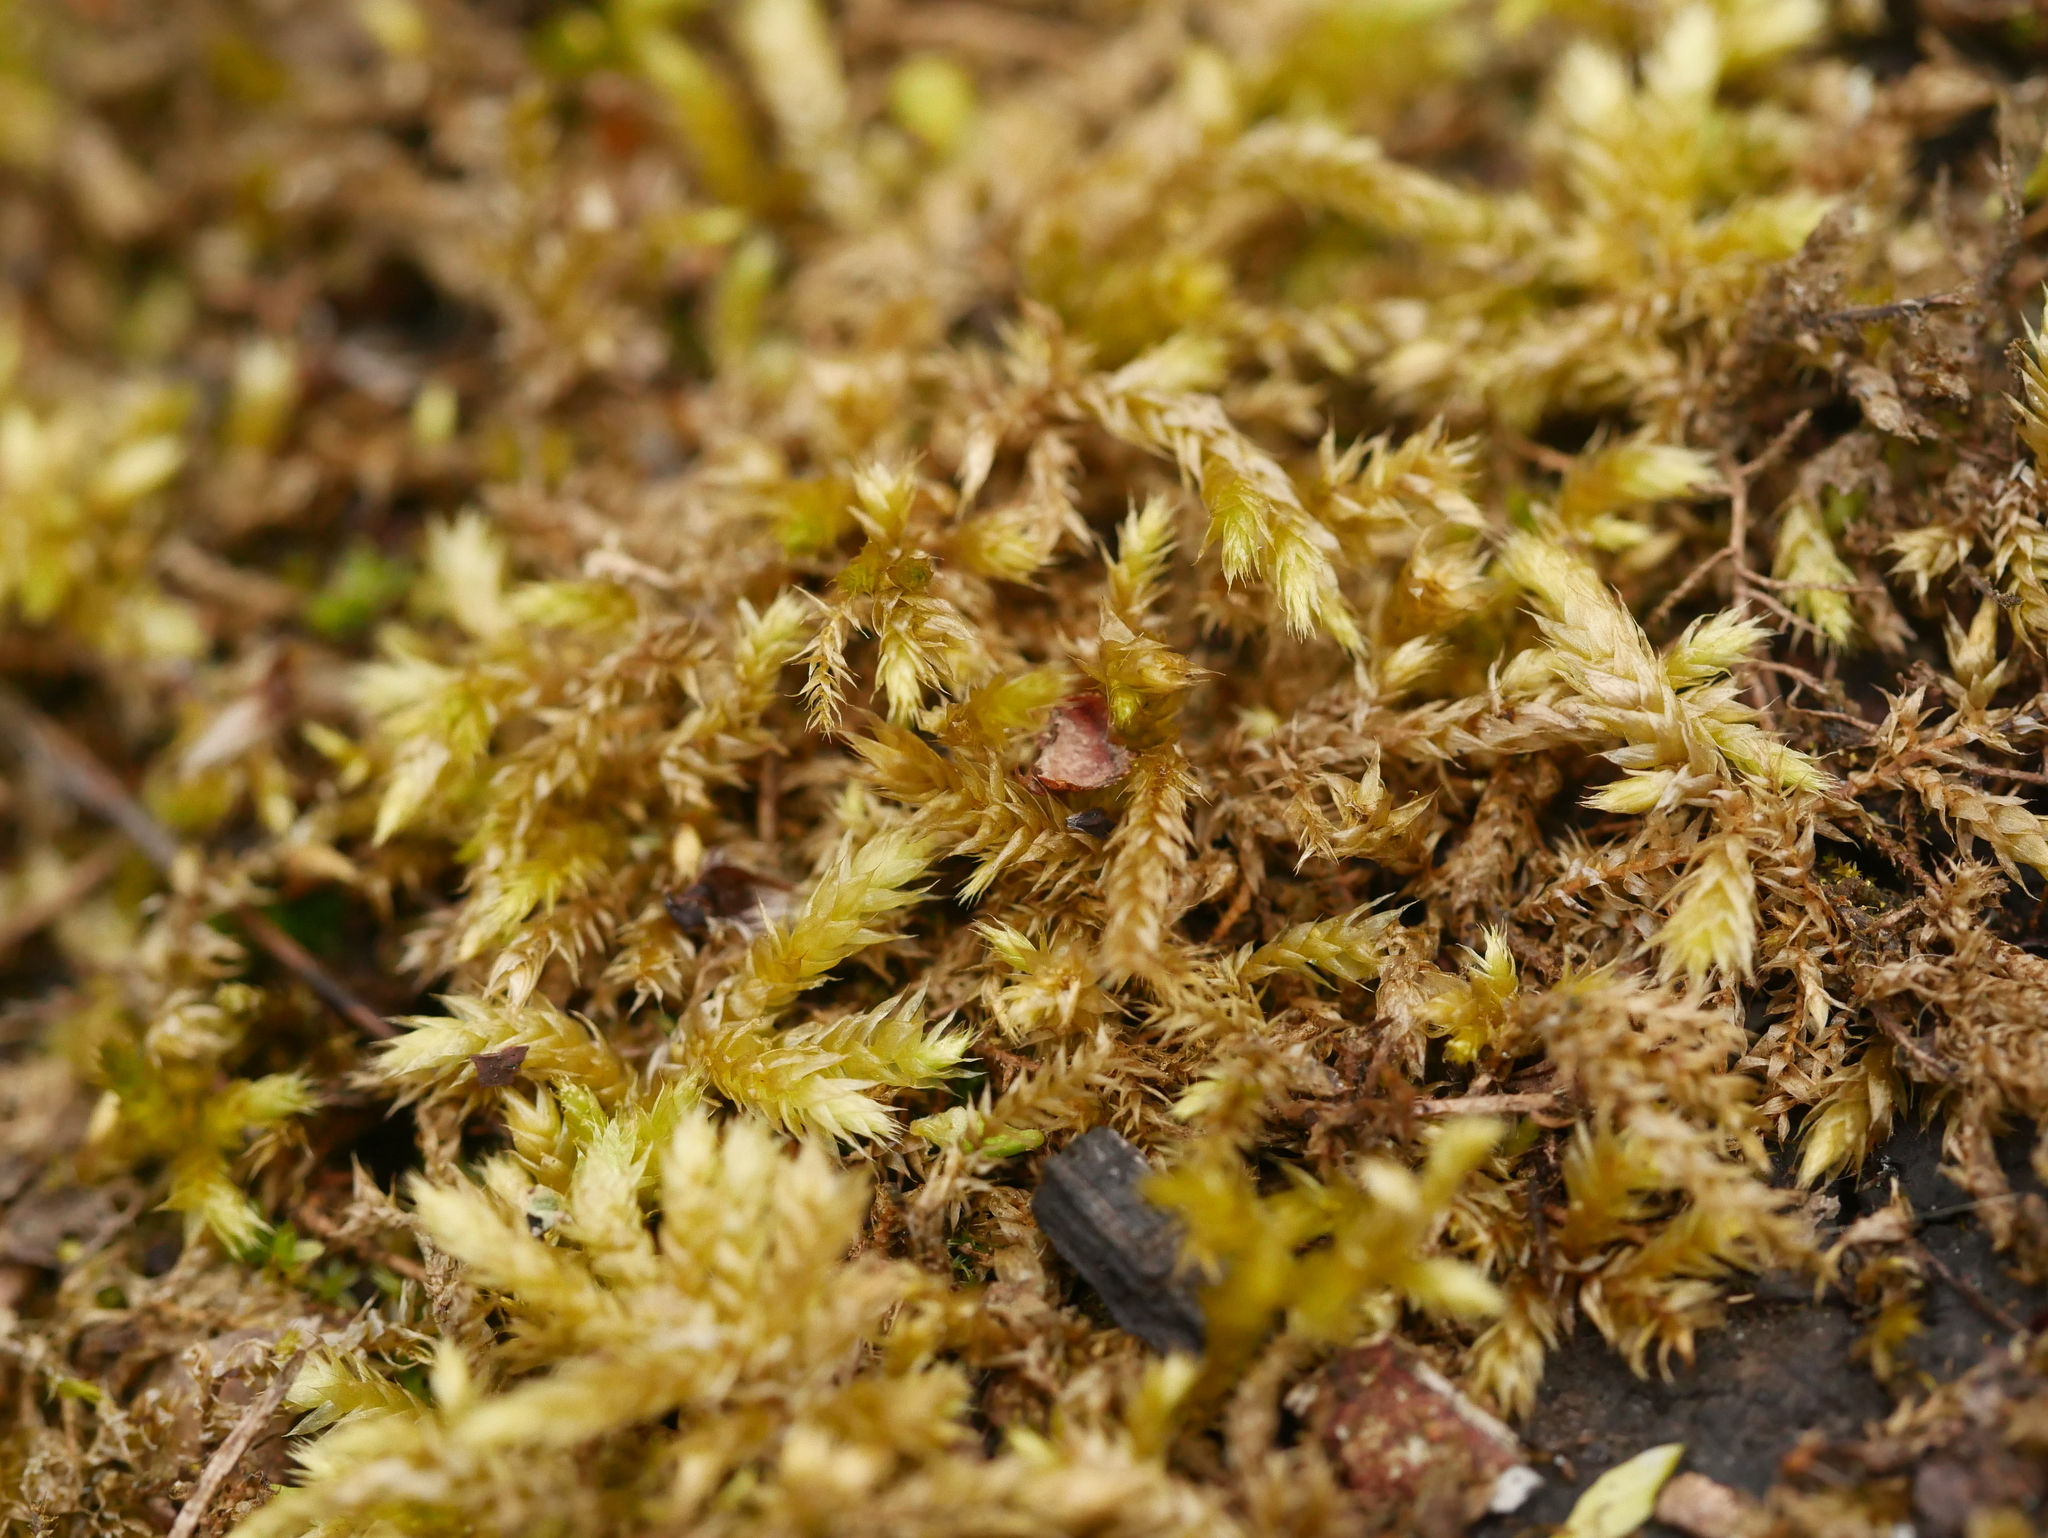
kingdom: Plantae
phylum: Bryophyta
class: Bryopsida
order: Hypnales
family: Hypnaceae
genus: Hypnum
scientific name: Hypnum cupressiforme
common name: Cypress-leaved plait-moss
